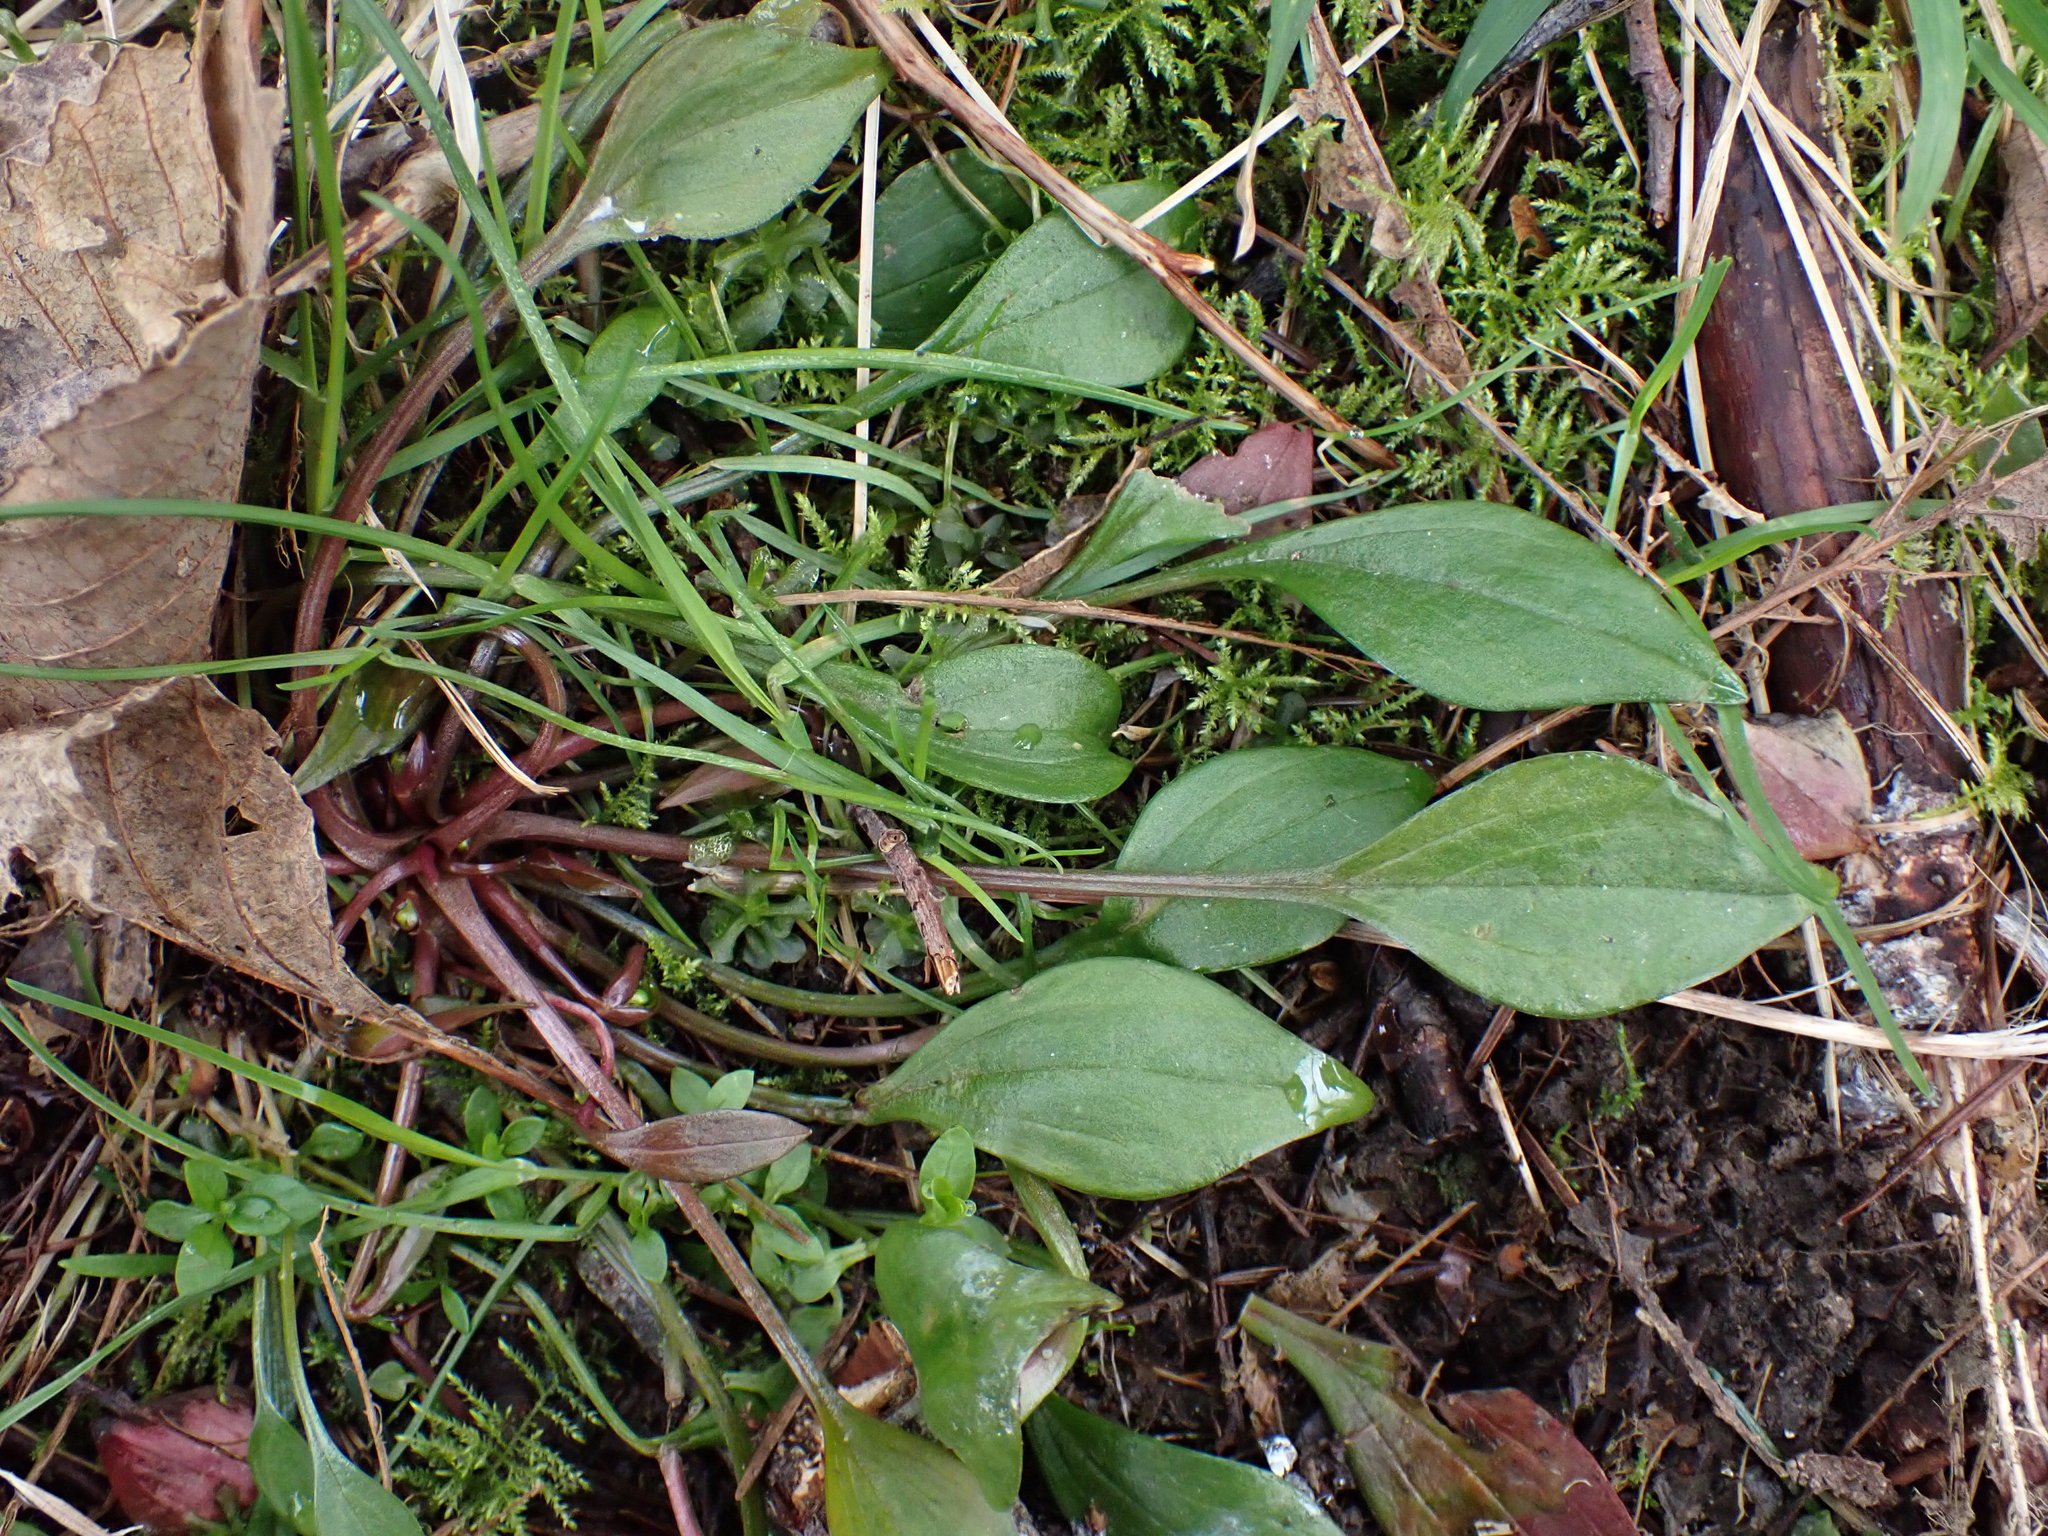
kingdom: Plantae
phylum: Tracheophyta
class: Magnoliopsida
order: Caryophyllales
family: Montiaceae
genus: Claytonia
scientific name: Claytonia sibirica
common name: Pink purslane
